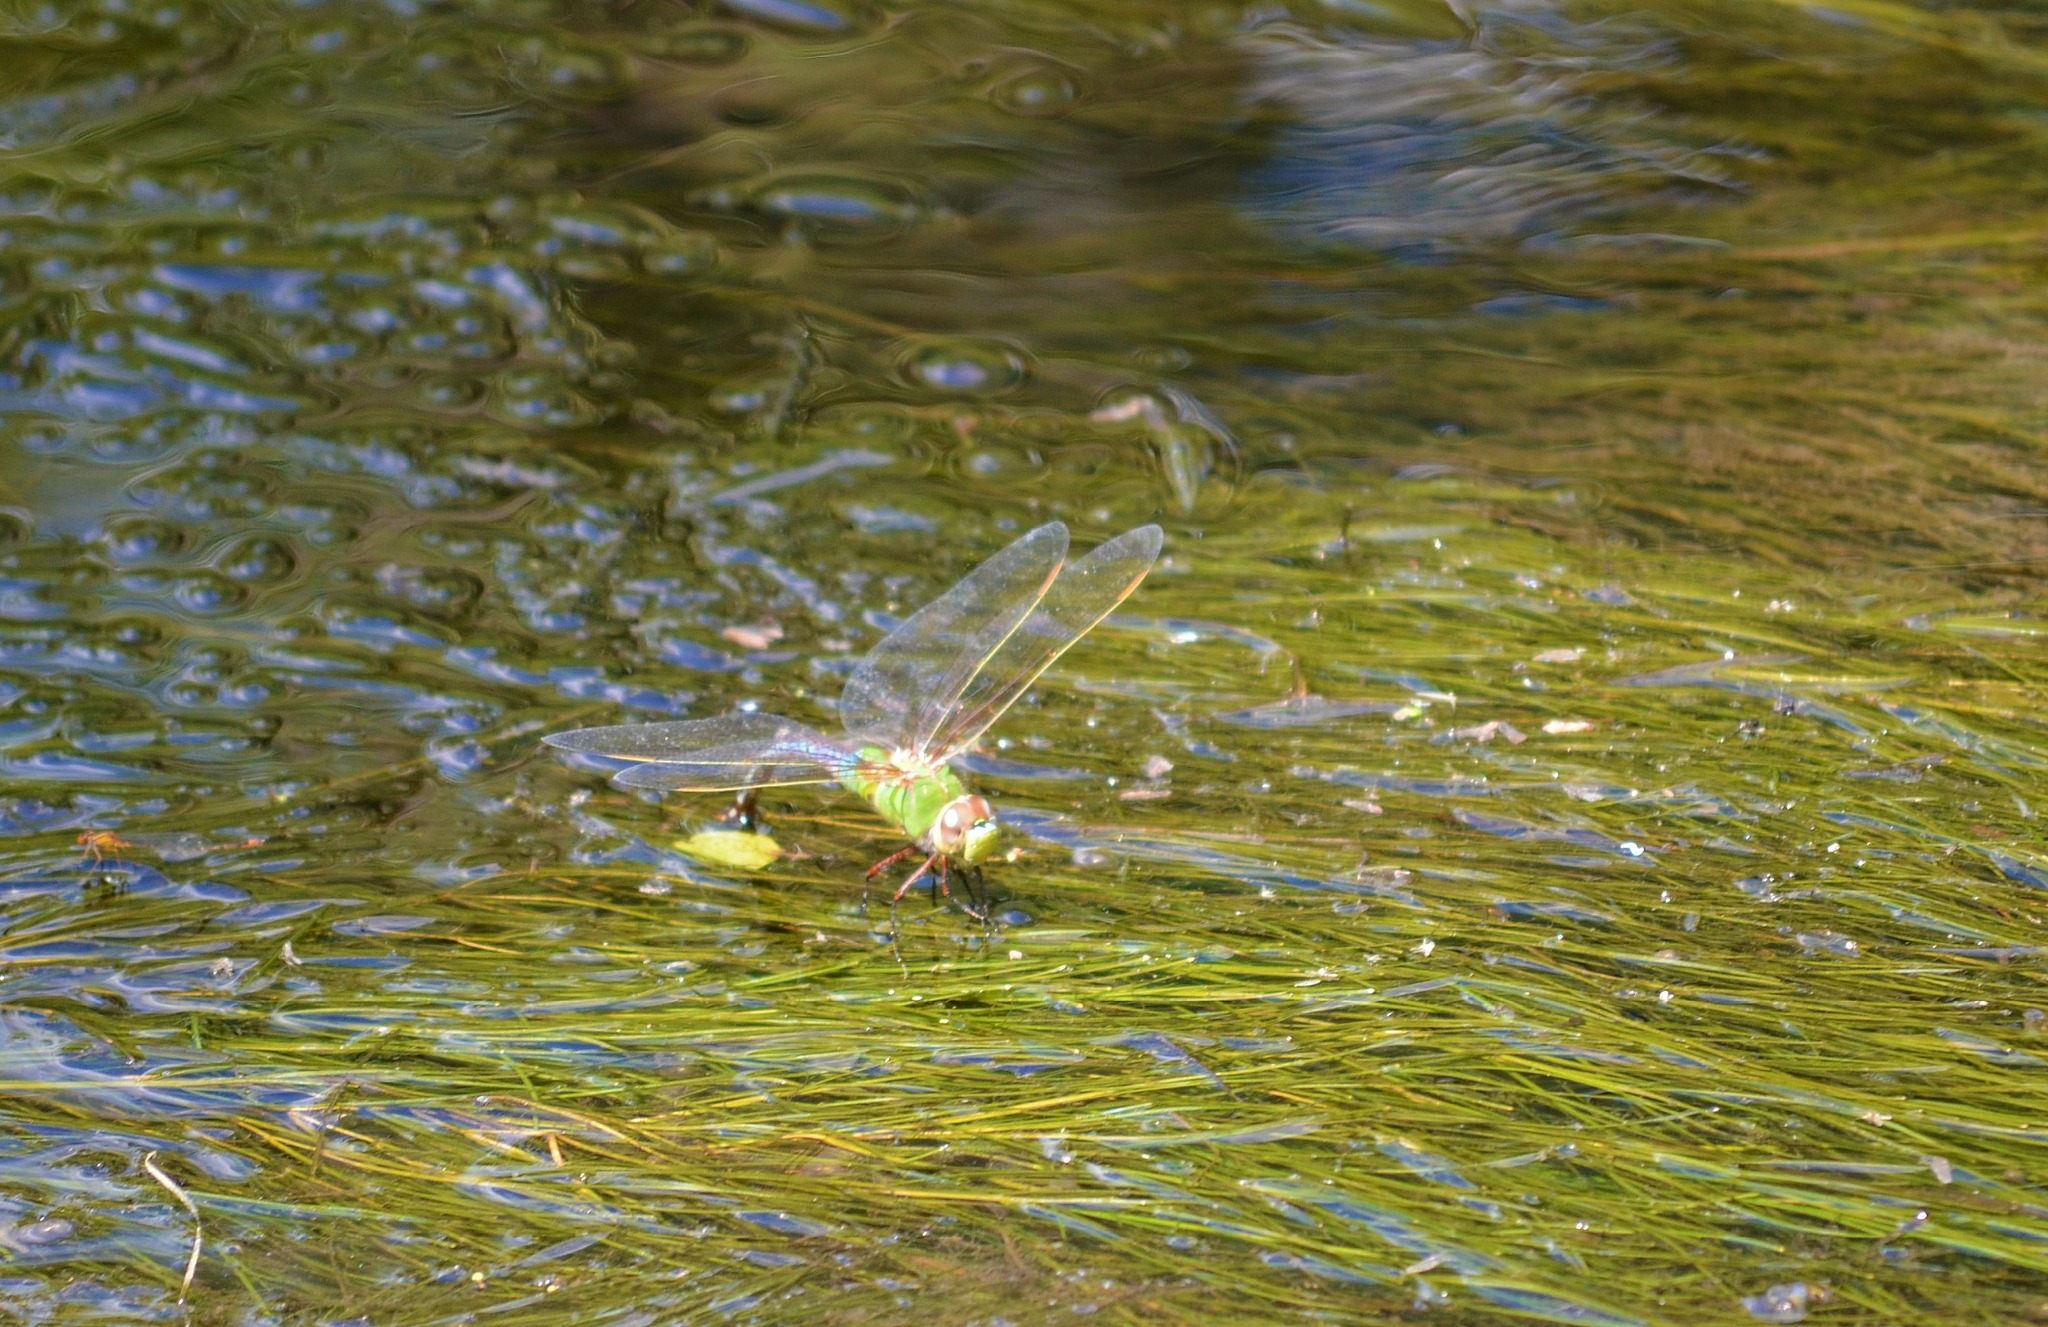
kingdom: Animalia
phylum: Arthropoda
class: Insecta
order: Odonata
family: Aeshnidae
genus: Anax
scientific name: Anax junius
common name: Common green darner
